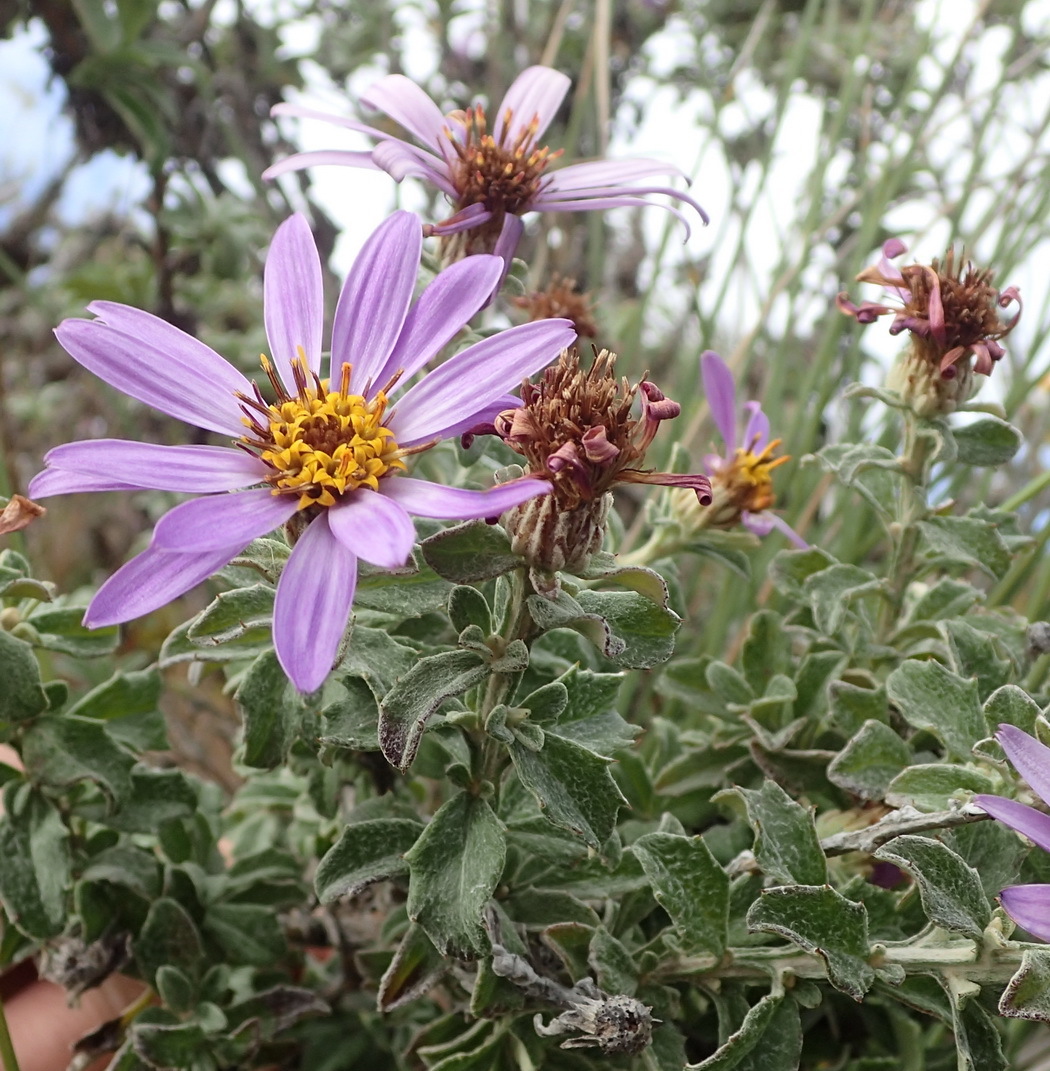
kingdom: Plantae
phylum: Tracheophyta
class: Magnoliopsida
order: Asterales
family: Asteraceae
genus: Printzia
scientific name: Printzia polifolia
